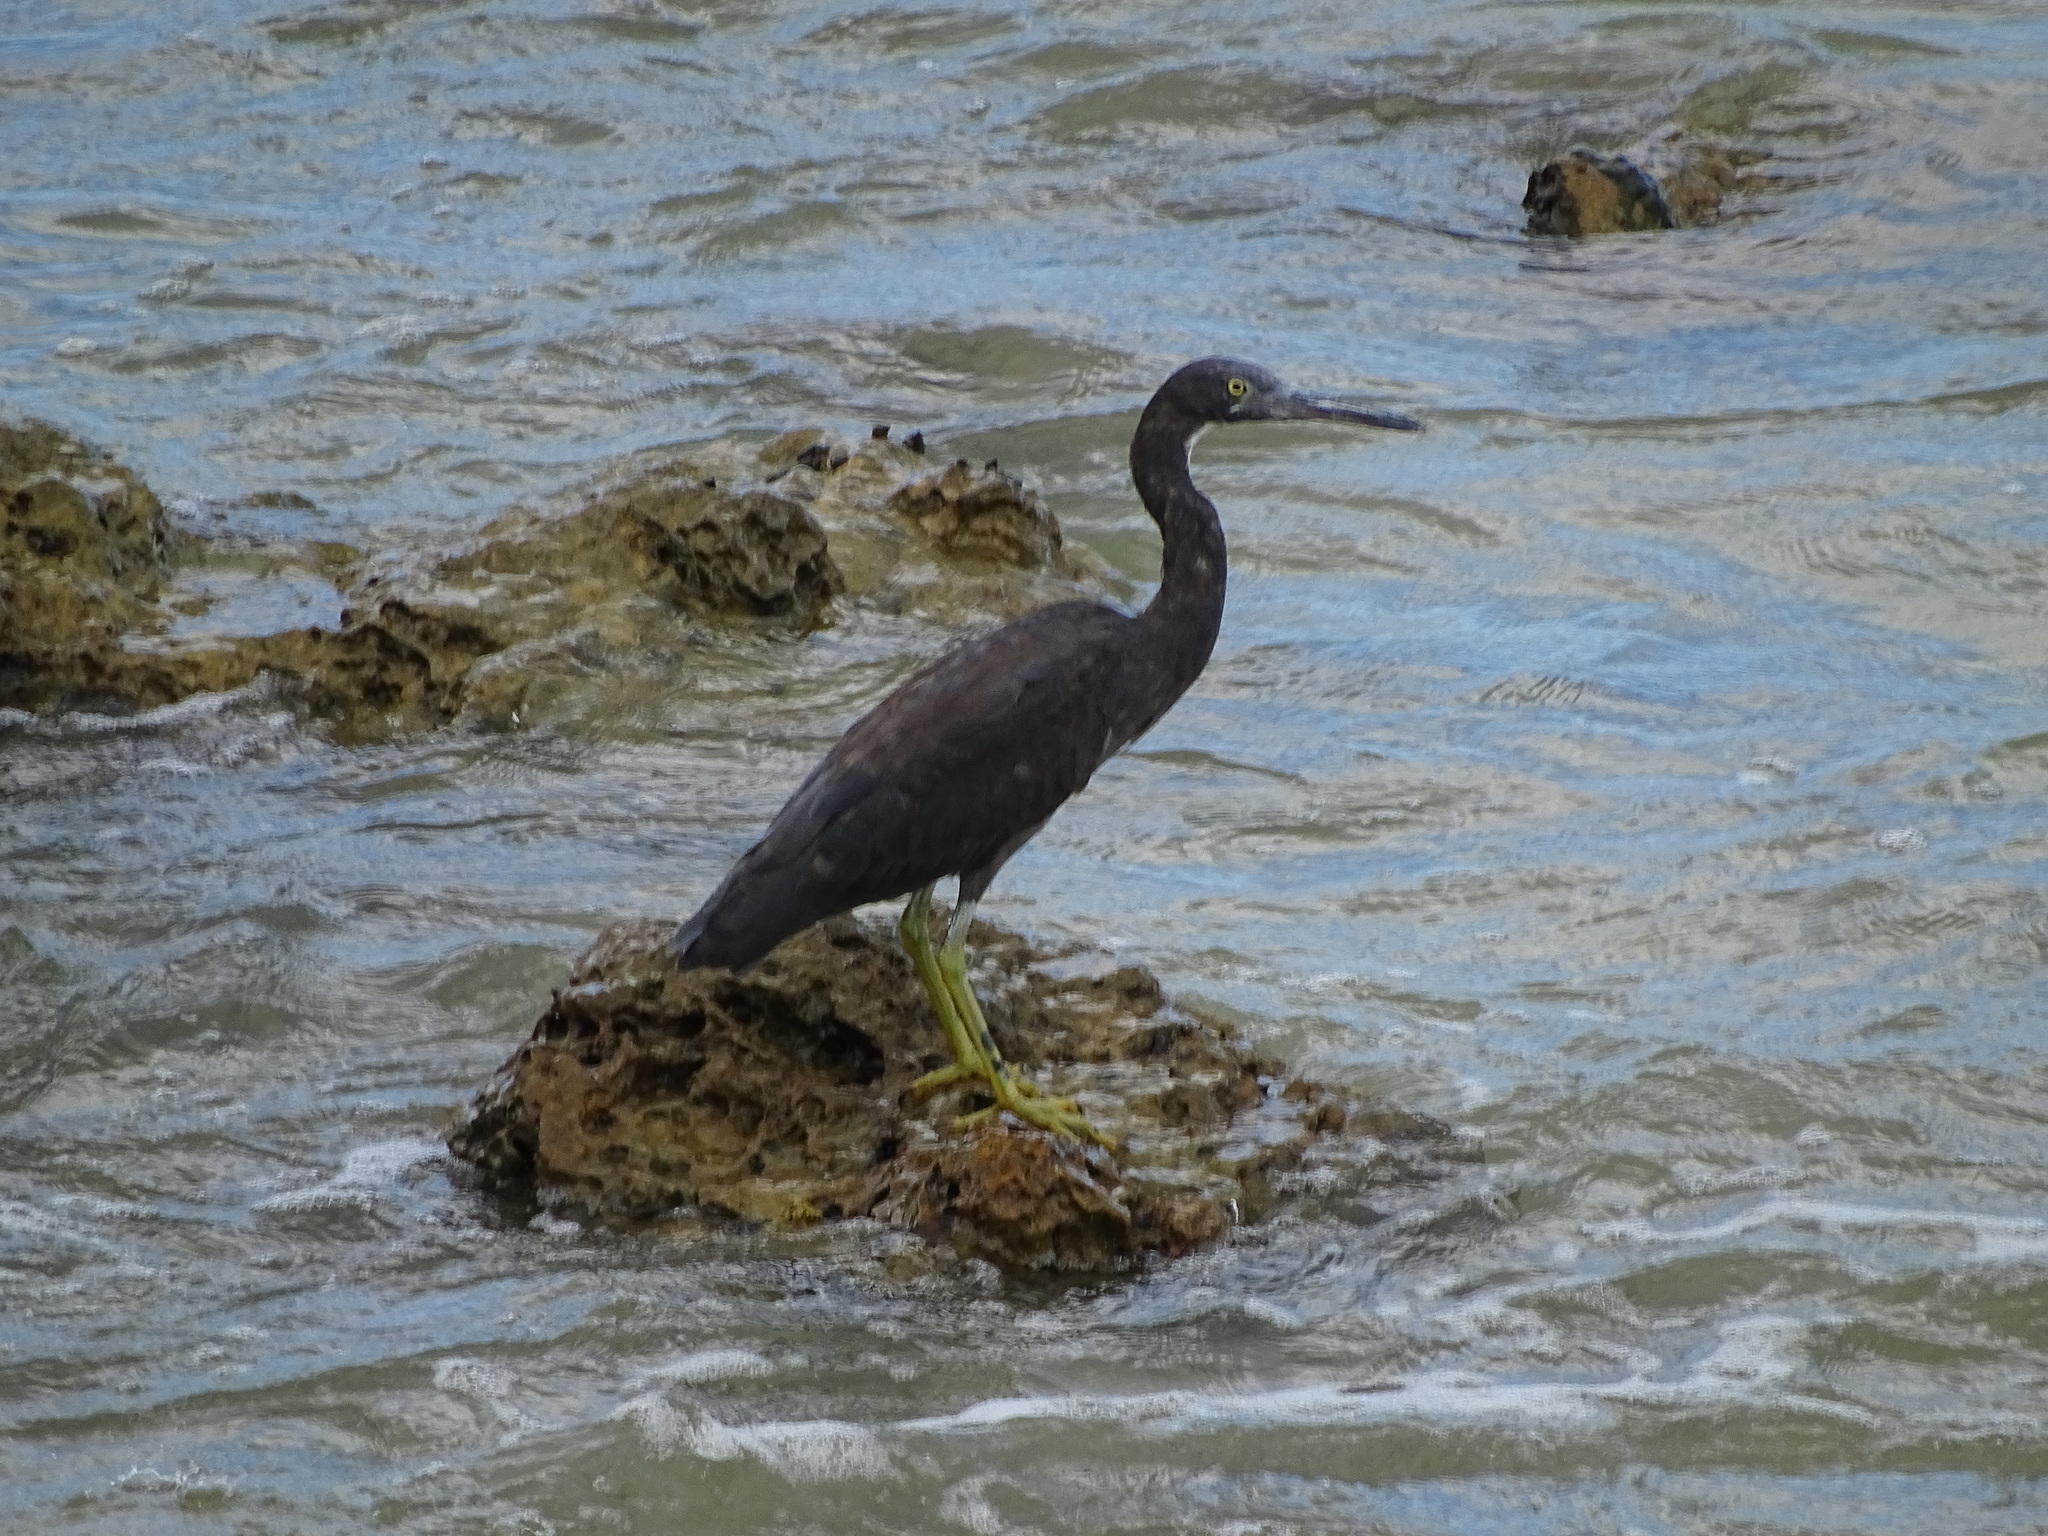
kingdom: Animalia
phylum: Chordata
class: Aves
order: Pelecaniformes
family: Ardeidae
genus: Egretta
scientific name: Egretta sacra
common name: Pacific reef heron
